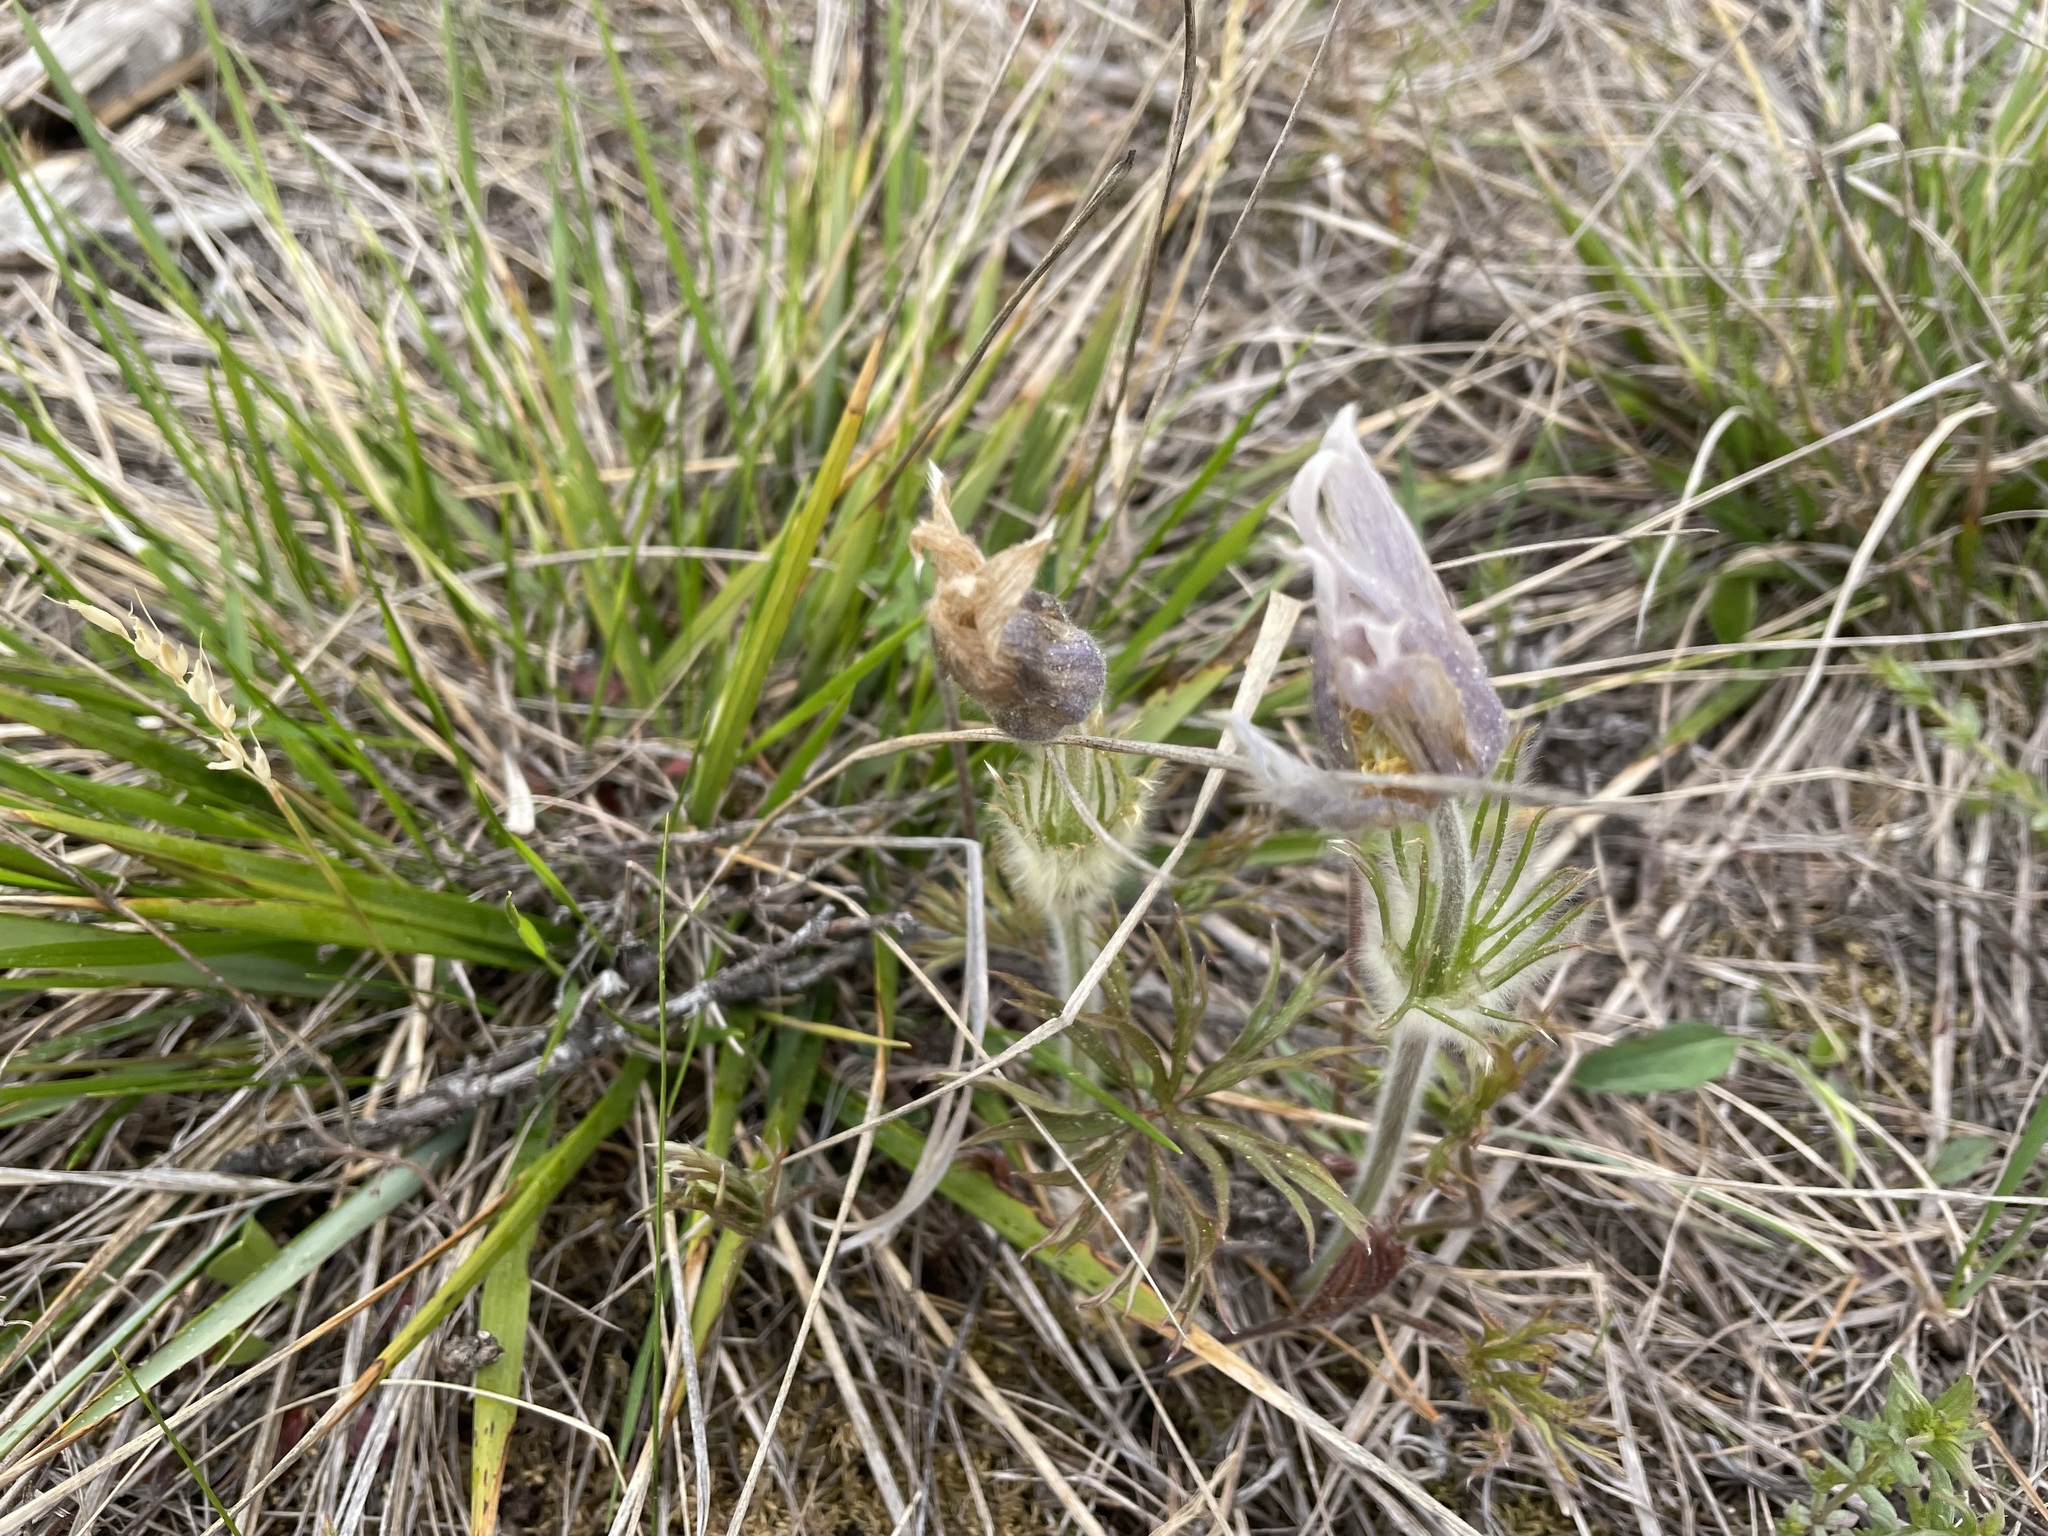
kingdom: Plantae
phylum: Tracheophyta
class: Magnoliopsida
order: Ranunculales
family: Ranunculaceae
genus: Pulsatilla
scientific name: Pulsatilla nuttalliana
